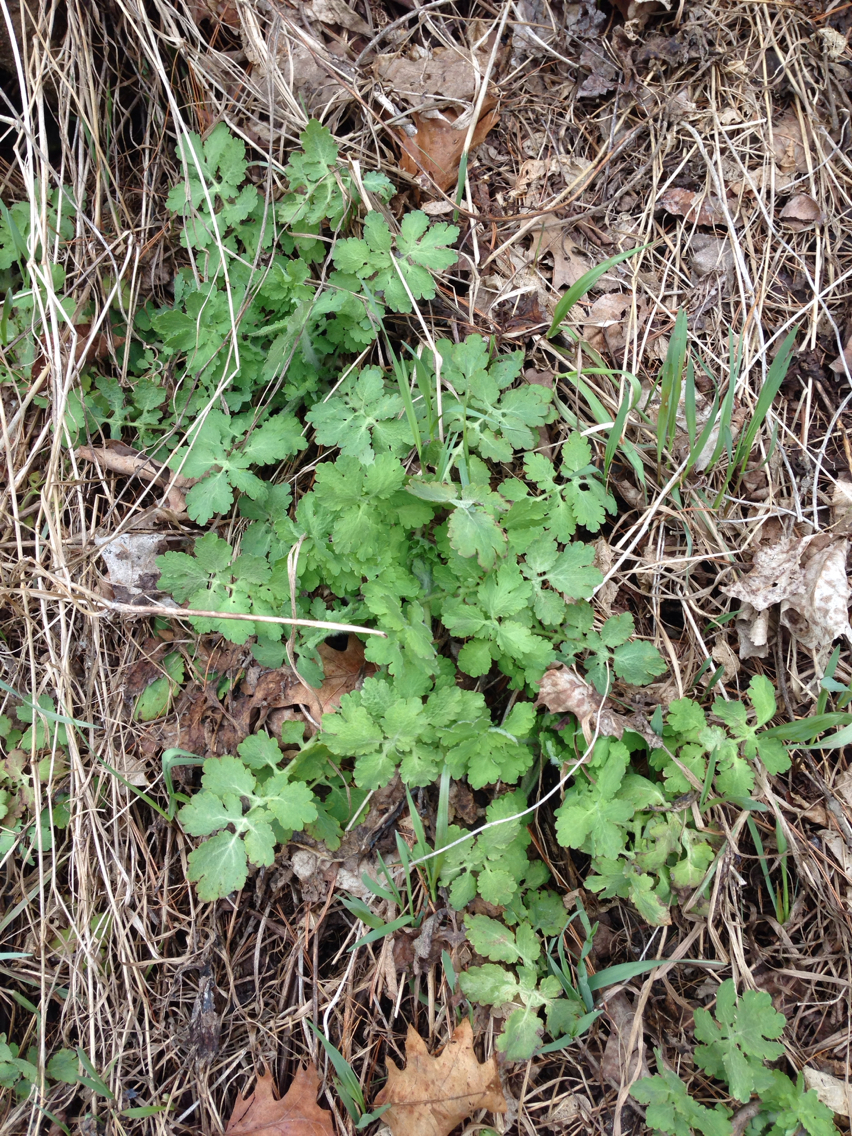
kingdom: Plantae
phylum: Tracheophyta
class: Magnoliopsida
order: Ranunculales
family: Papaveraceae
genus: Chelidonium
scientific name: Chelidonium majus
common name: Greater celandine
